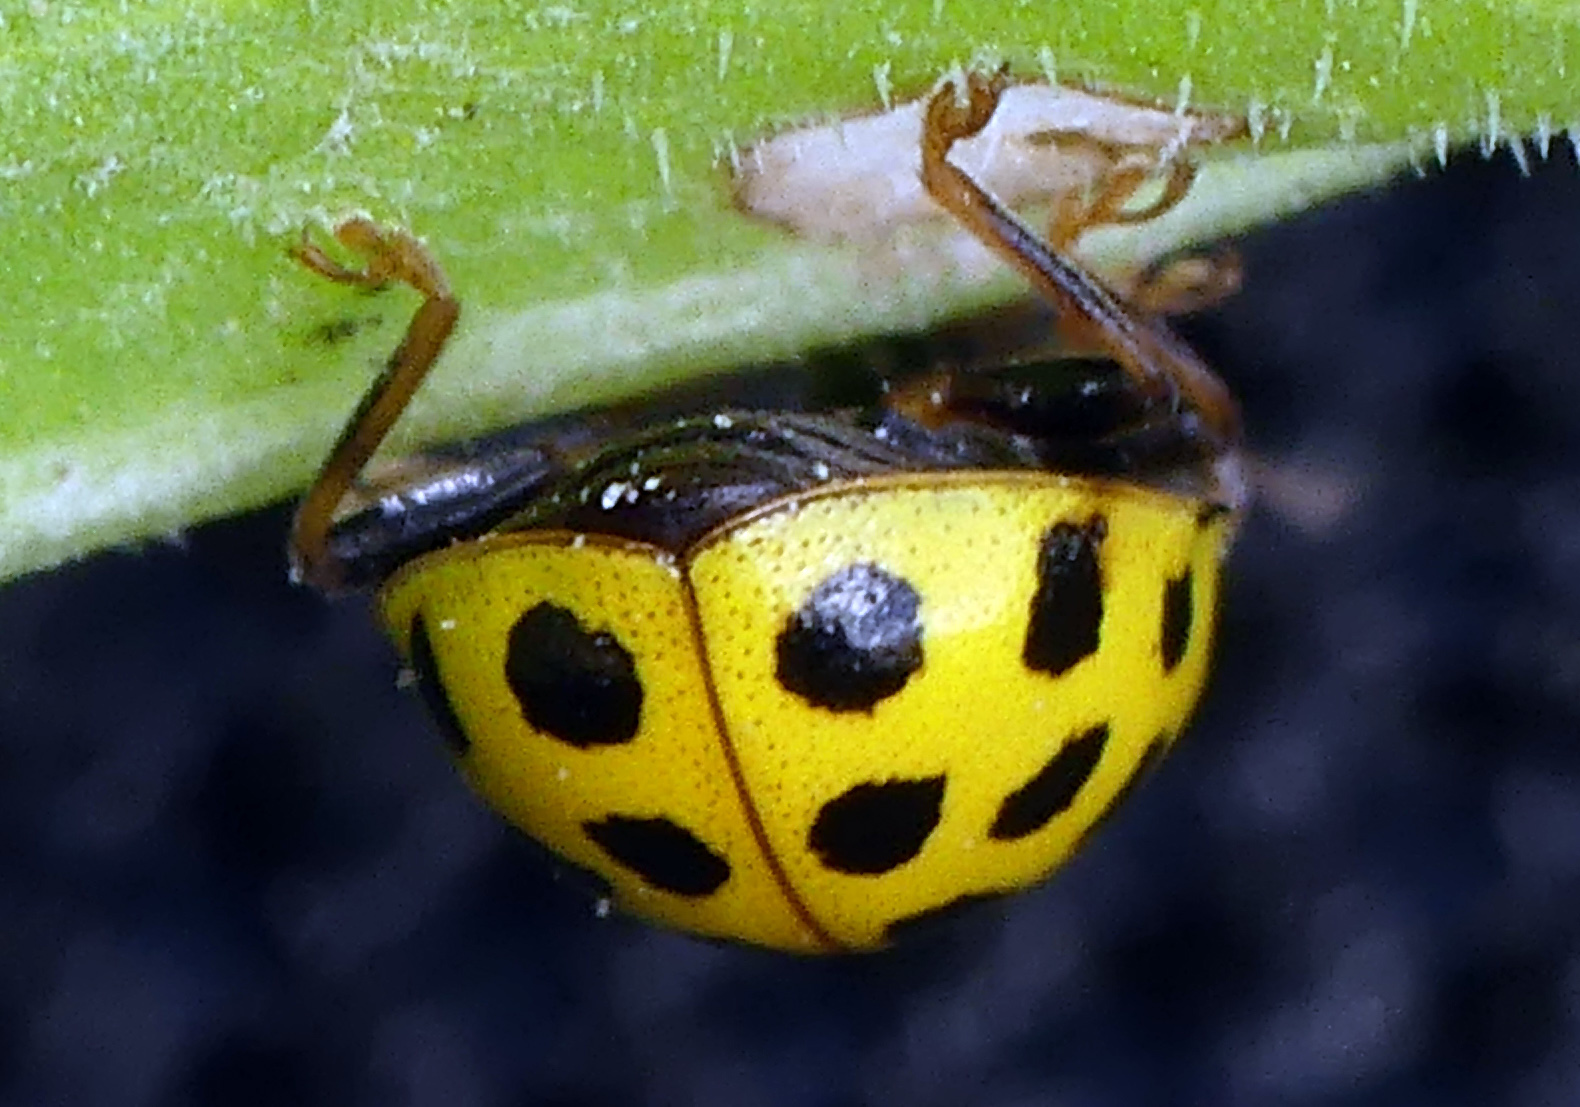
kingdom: Animalia
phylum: Arthropoda
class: Insecta
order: Coleoptera
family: Coccinellidae
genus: Psyllobora
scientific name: Psyllobora vigintiduopunctata
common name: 22-spot ladybird
